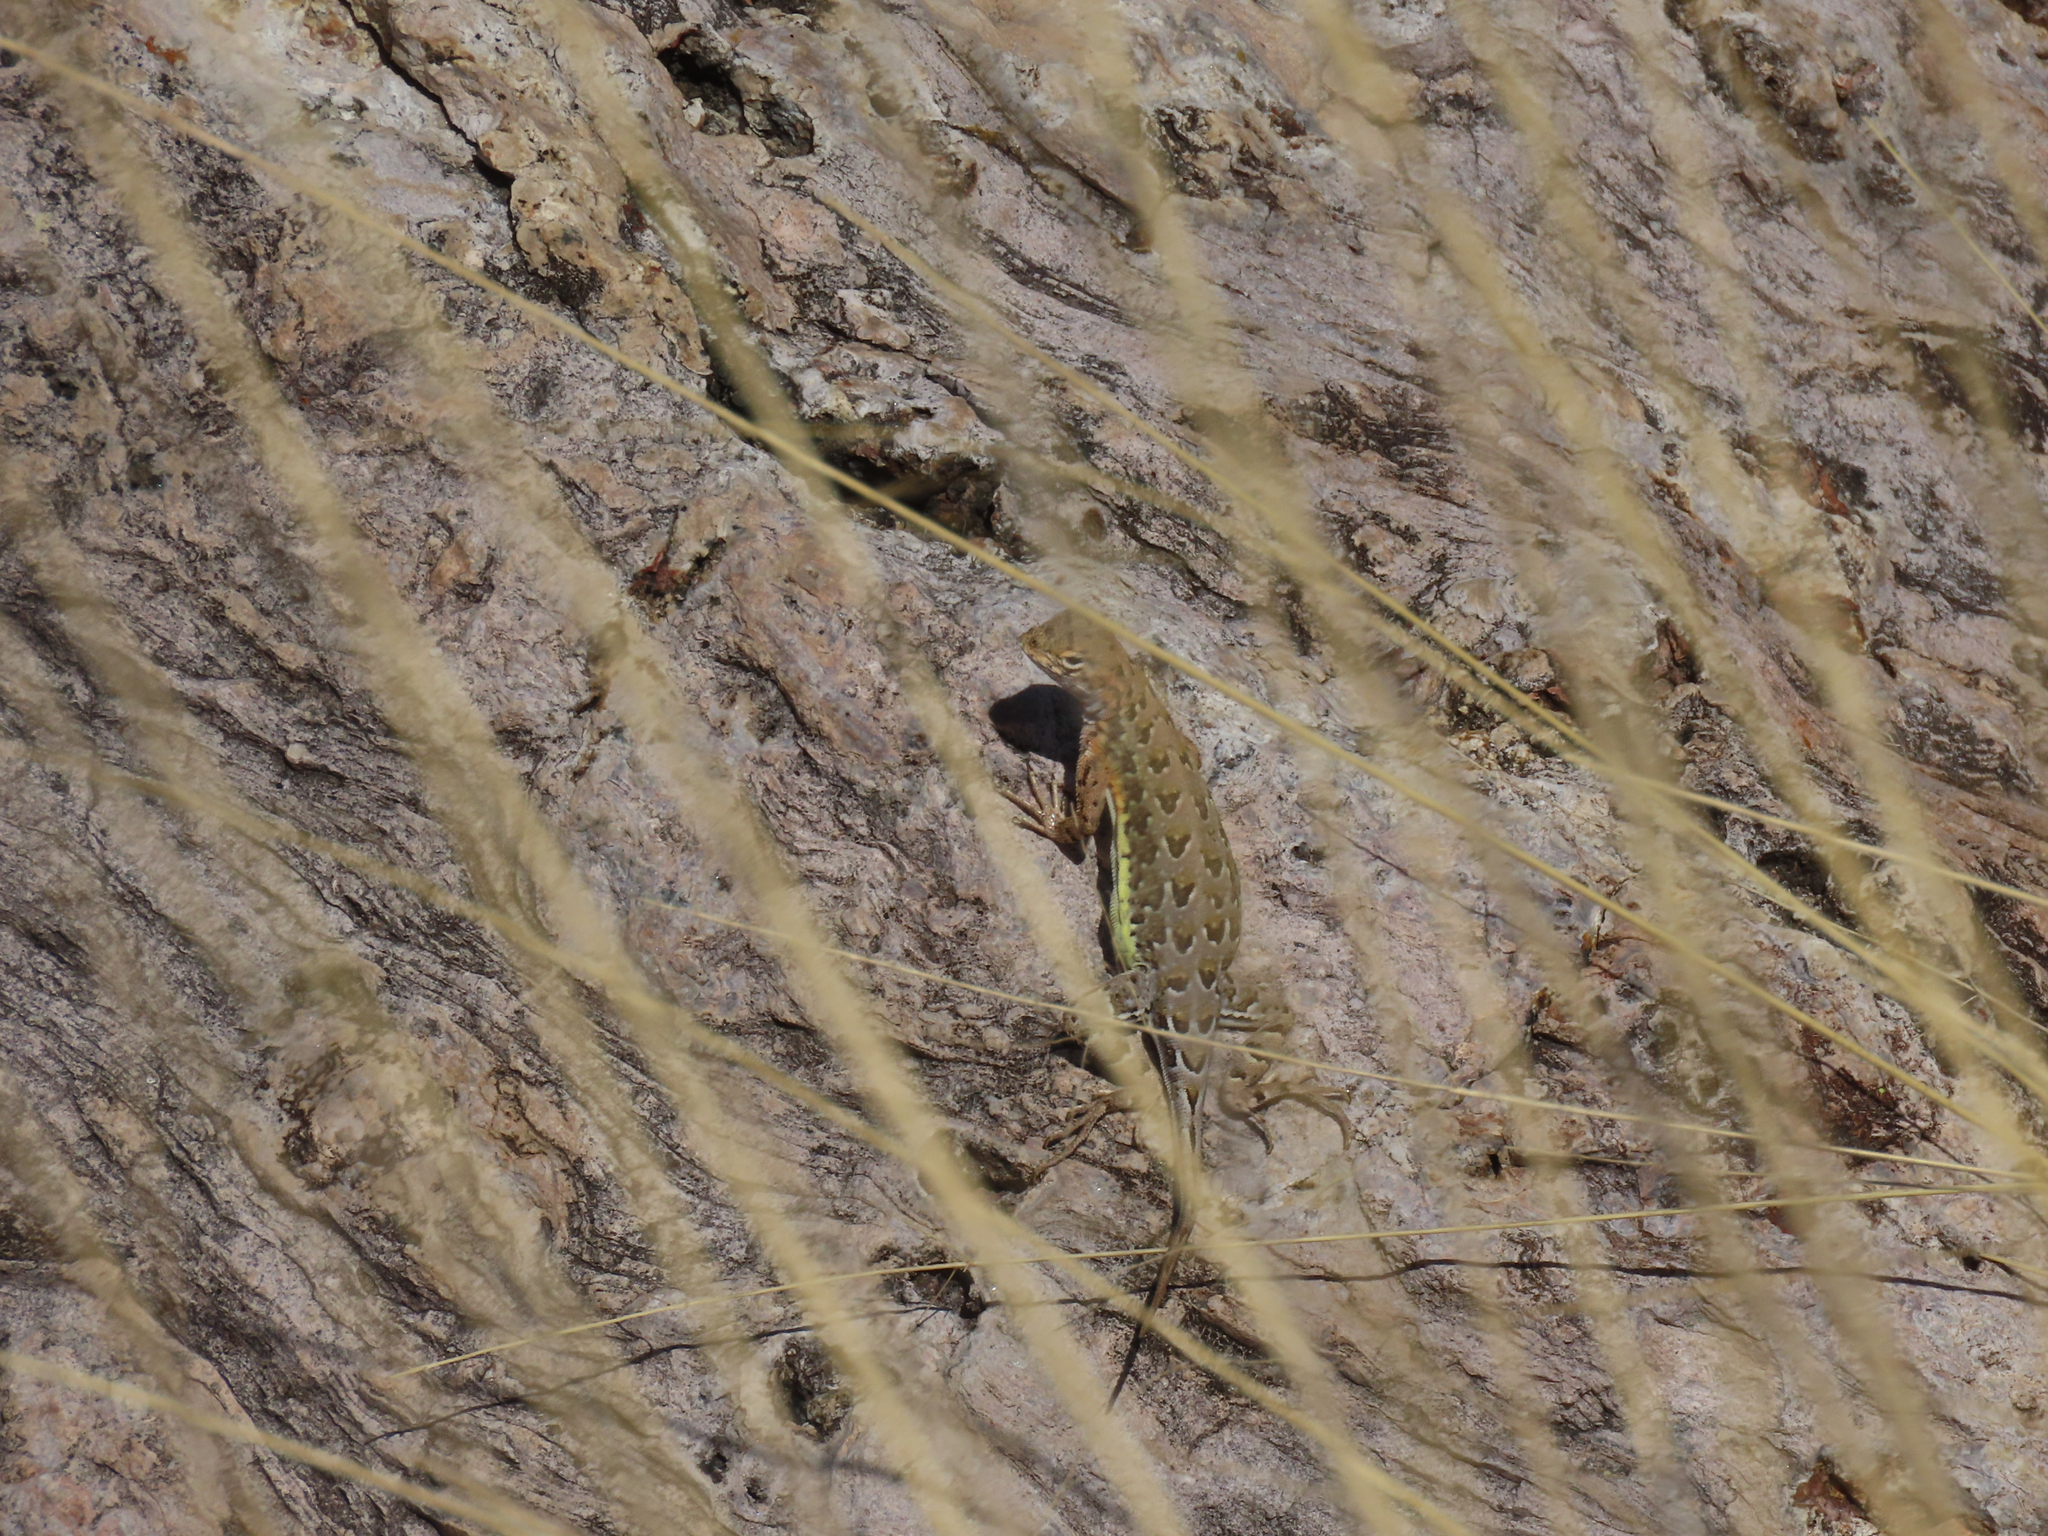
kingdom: Animalia
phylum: Chordata
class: Squamata
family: Phrynosomatidae
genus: Holbrookia
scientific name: Holbrookia elegans
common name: Elegant earless lizard
